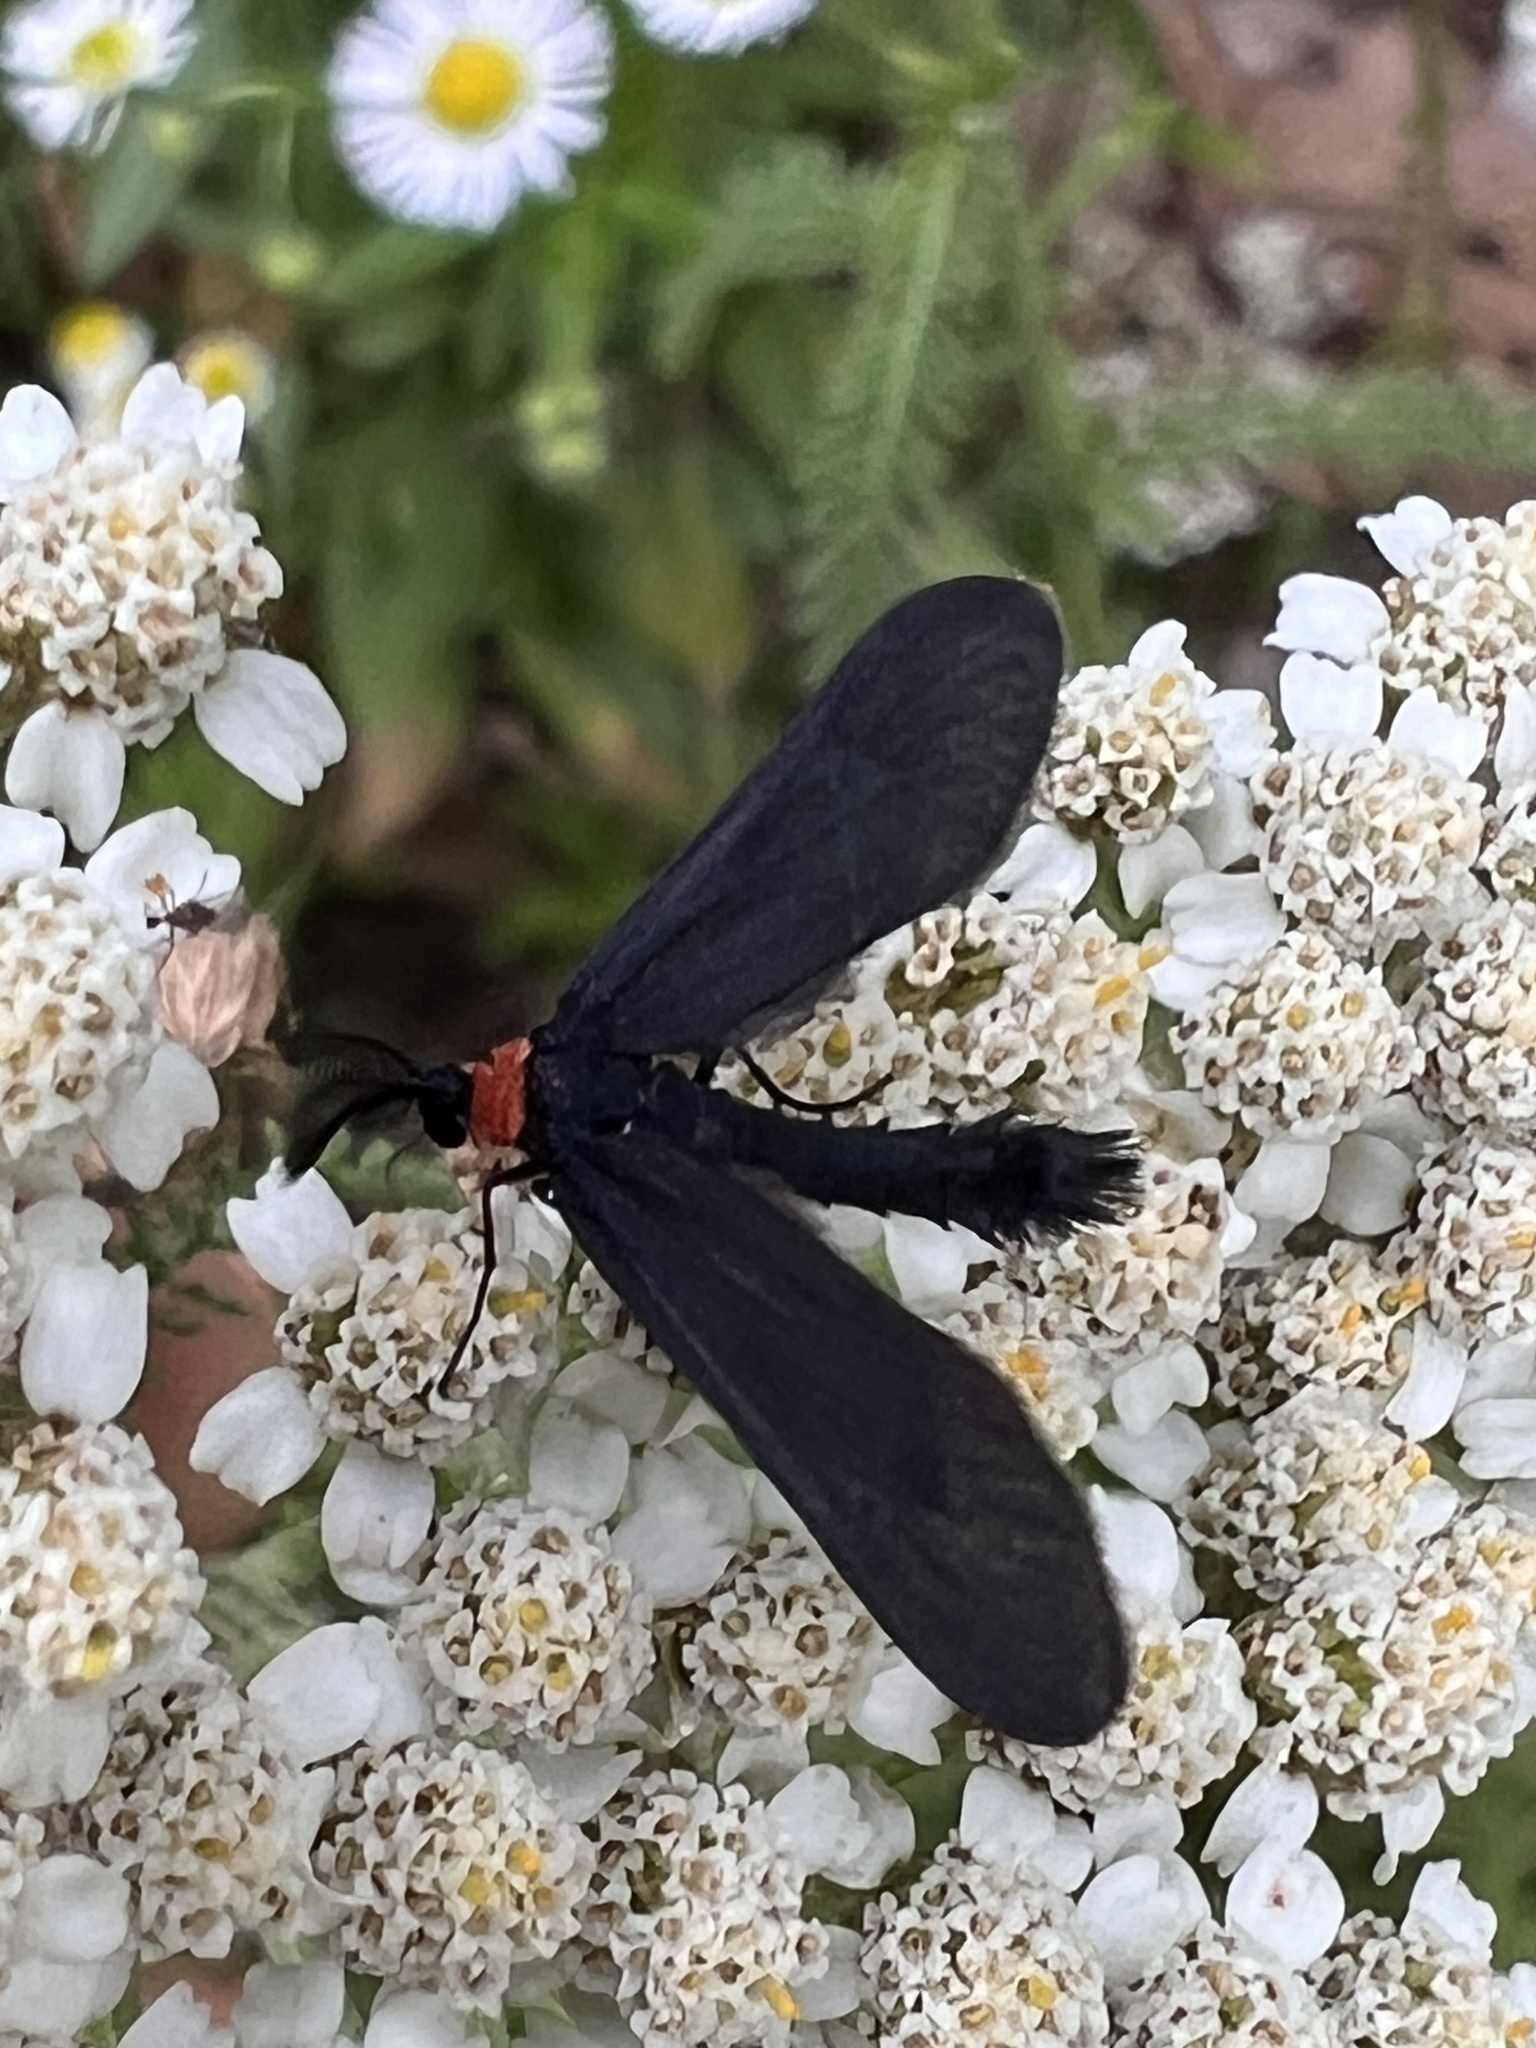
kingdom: Animalia
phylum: Arthropoda
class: Insecta
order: Lepidoptera
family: Zygaenidae
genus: Harrisina
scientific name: Harrisina americana
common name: Grapeleaf skeletonizer moth
